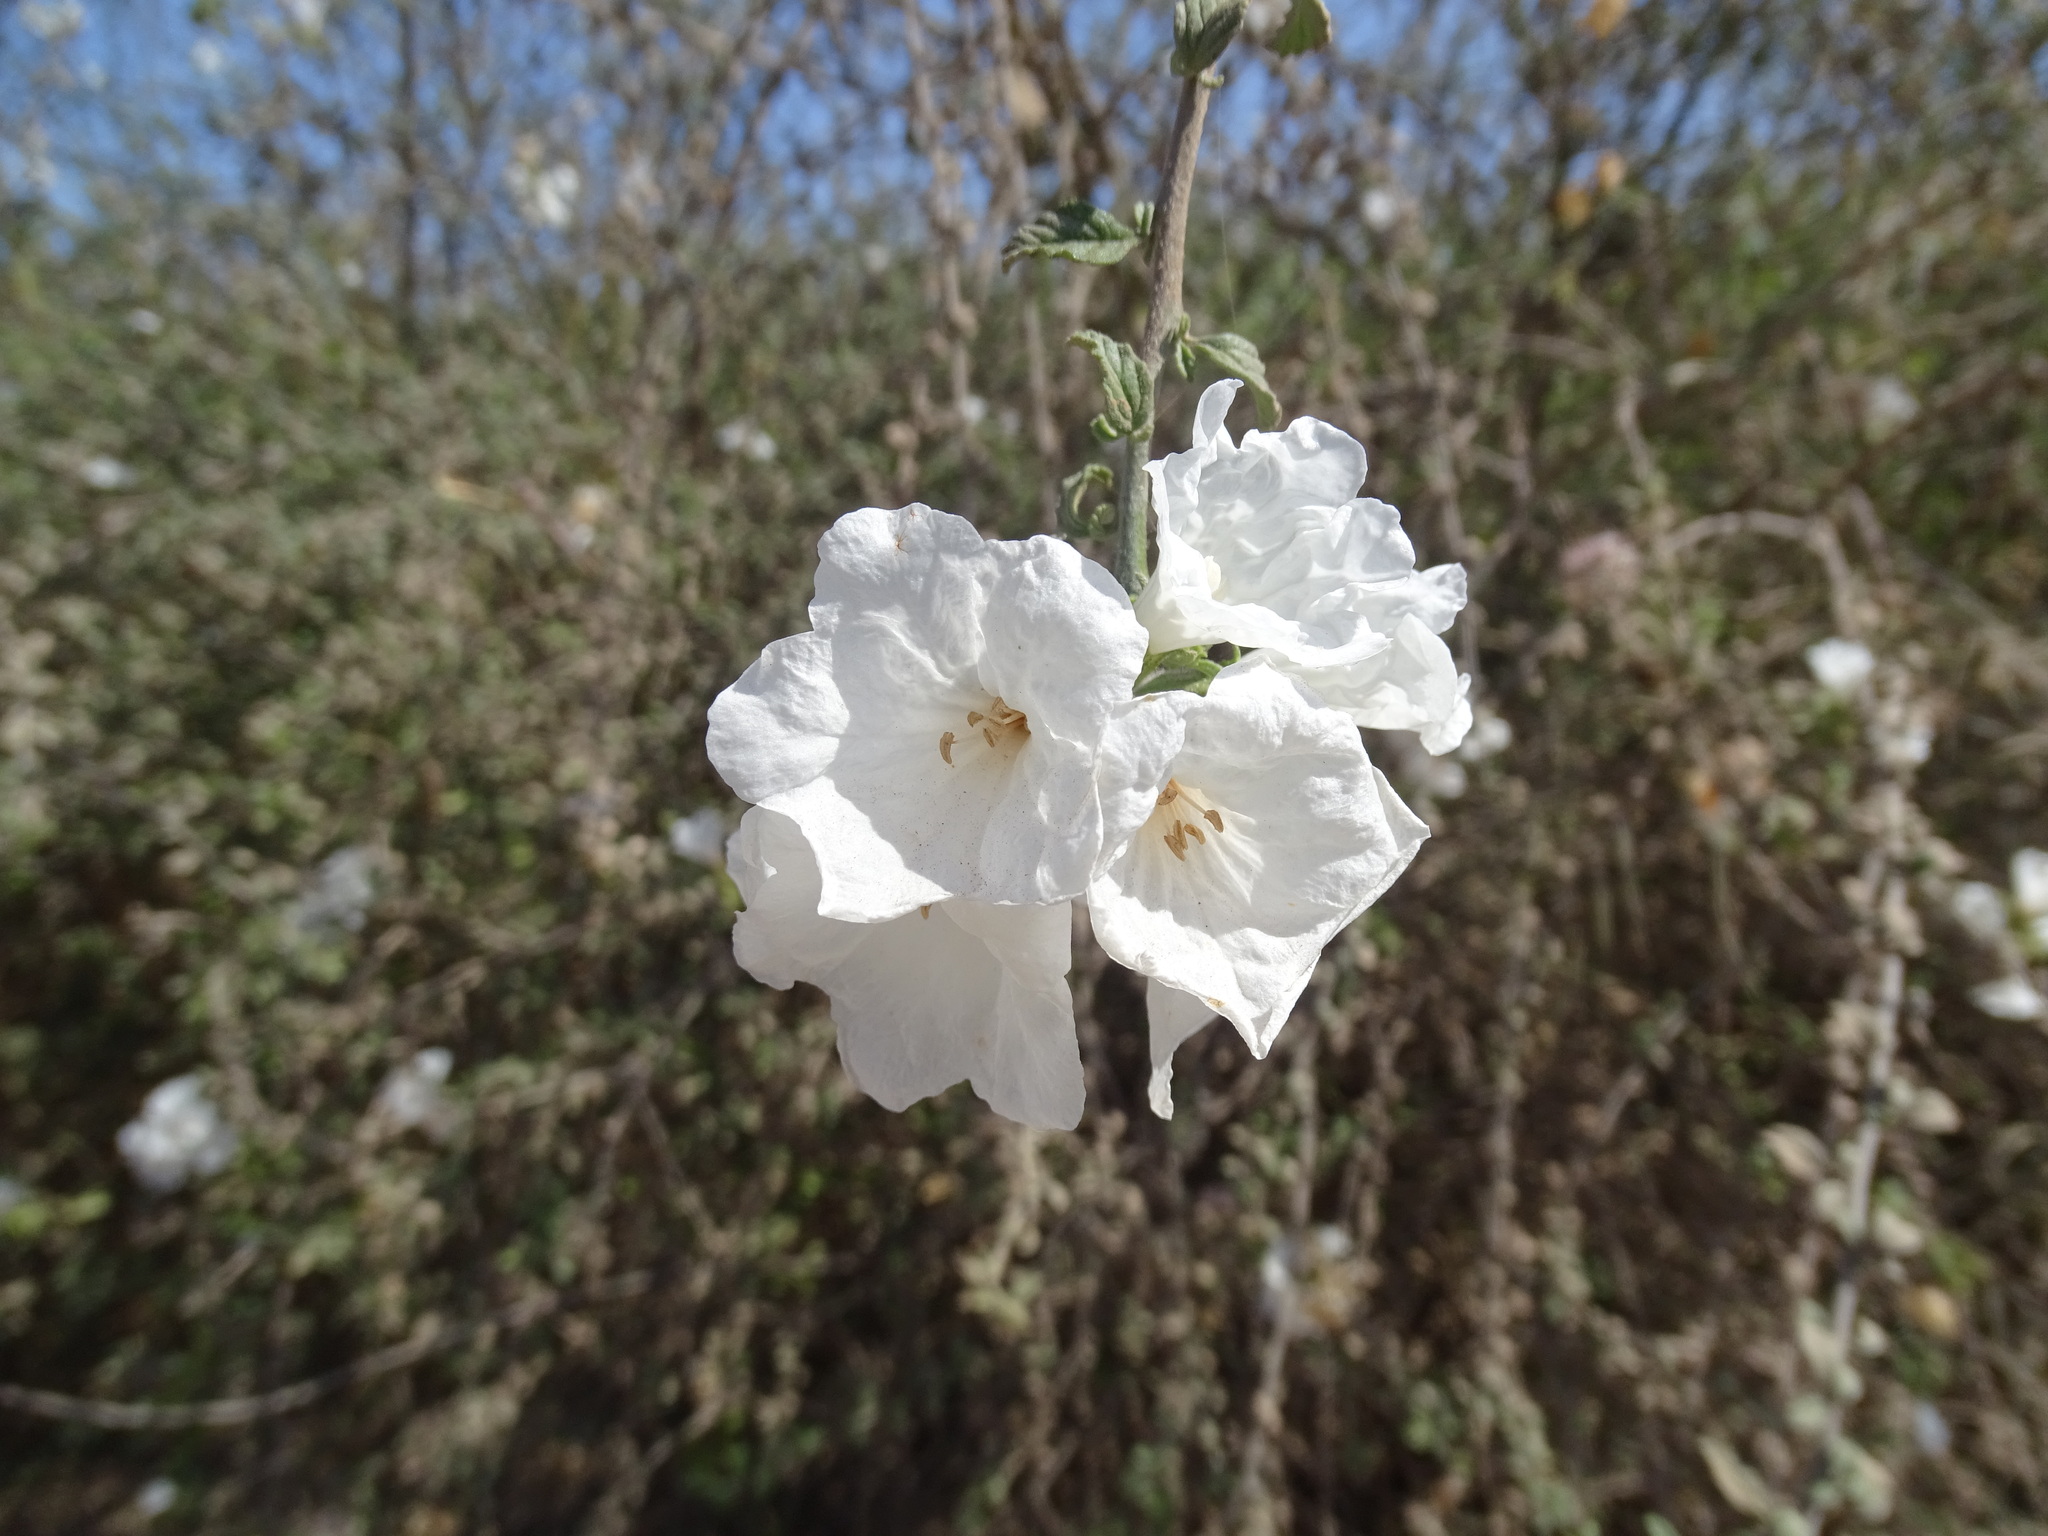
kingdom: Plantae
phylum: Tracheophyta
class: Magnoliopsida
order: Boraginales
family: Cordiaceae
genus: Cordia
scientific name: Cordia parvifolia
